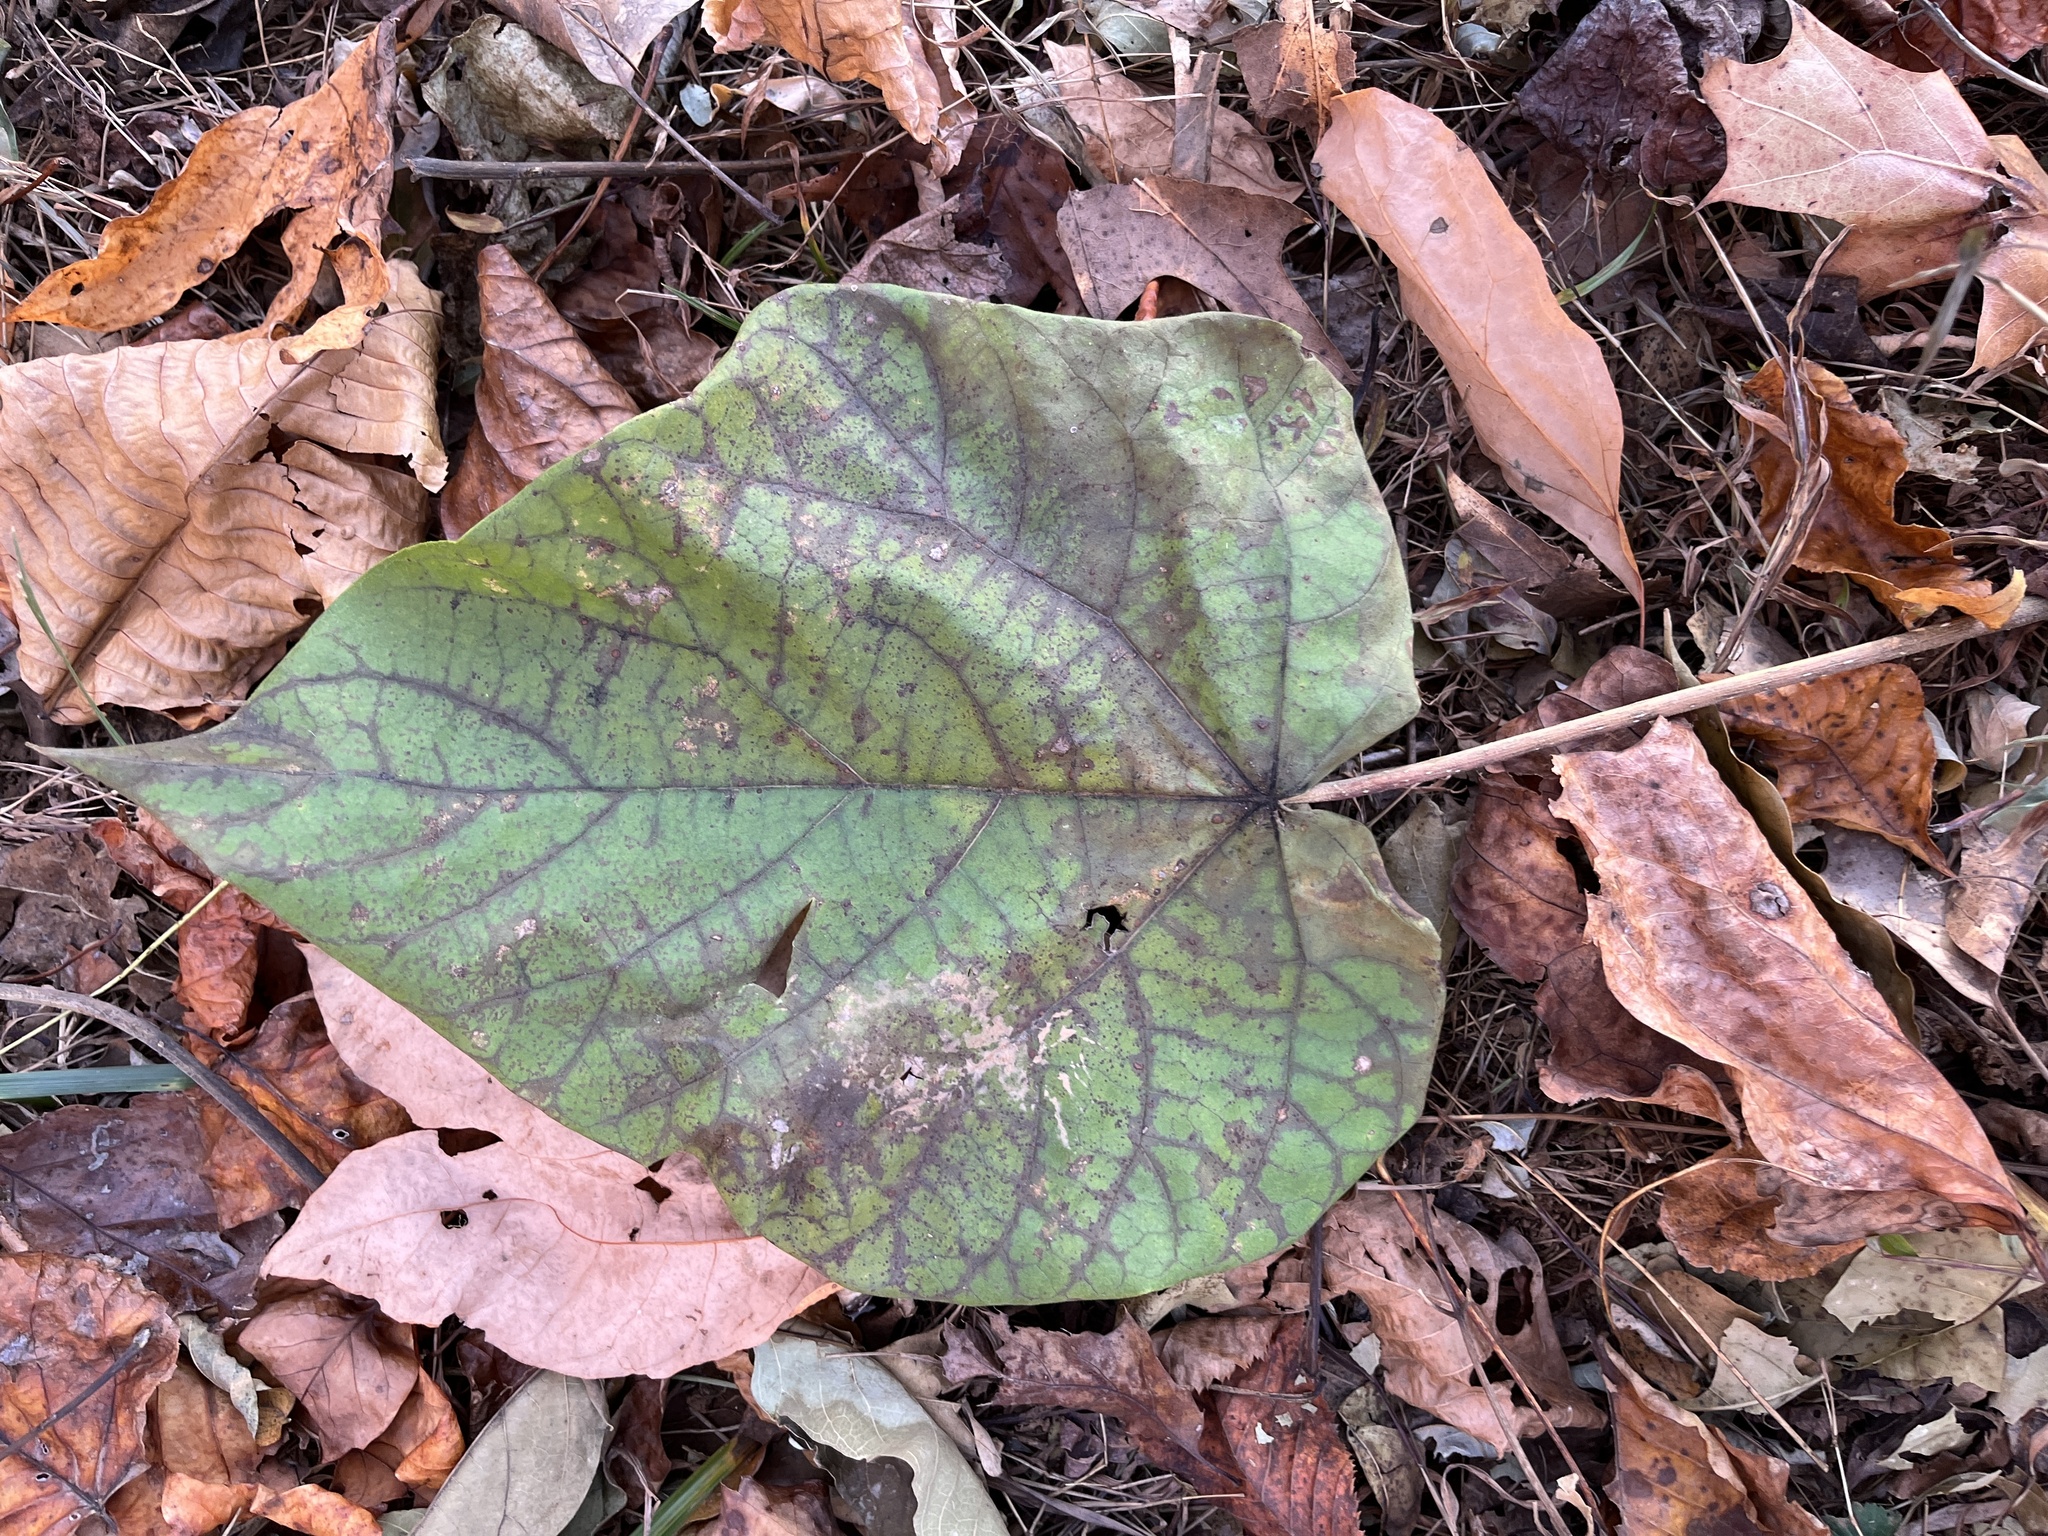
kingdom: Plantae
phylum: Tracheophyta
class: Magnoliopsida
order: Lamiales
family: Paulowniaceae
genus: Paulownia
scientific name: Paulownia tomentosa
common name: Foxglove-tree
